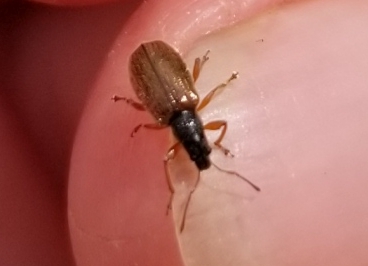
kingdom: Animalia
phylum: Arthropoda
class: Insecta
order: Coleoptera
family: Curculionidae
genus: Phyllobius
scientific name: Phyllobius oblongus
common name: Brown leaf weevil
